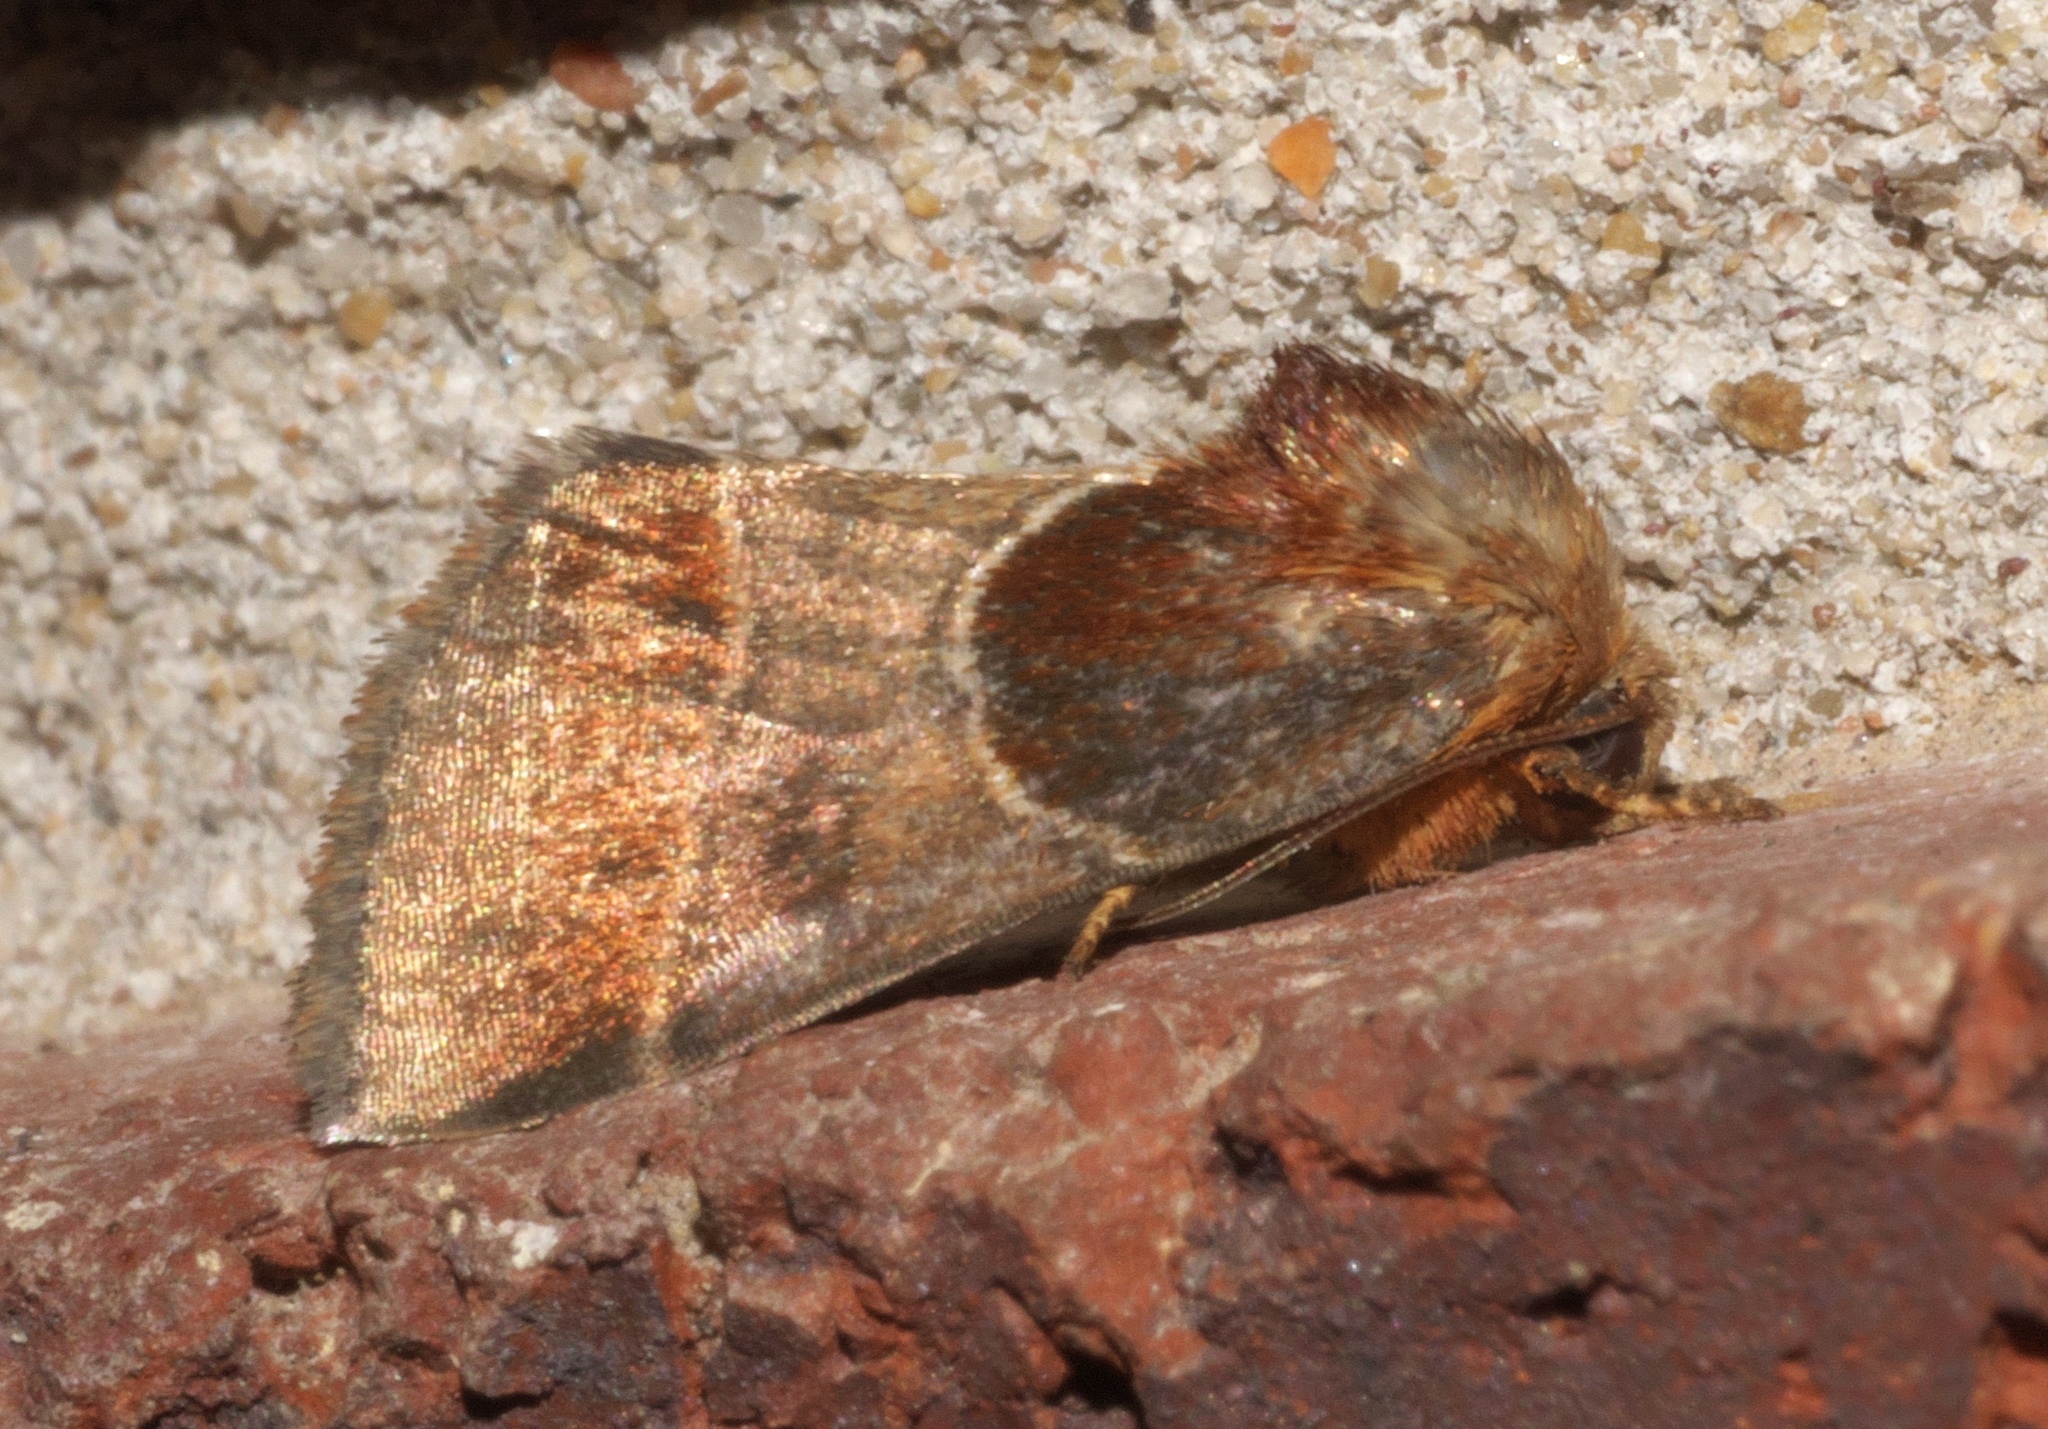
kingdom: Animalia
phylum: Arthropoda
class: Insecta
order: Lepidoptera
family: Noctuidae
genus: Schinia
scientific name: Schinia arcigera
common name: Arcigera flower moth
